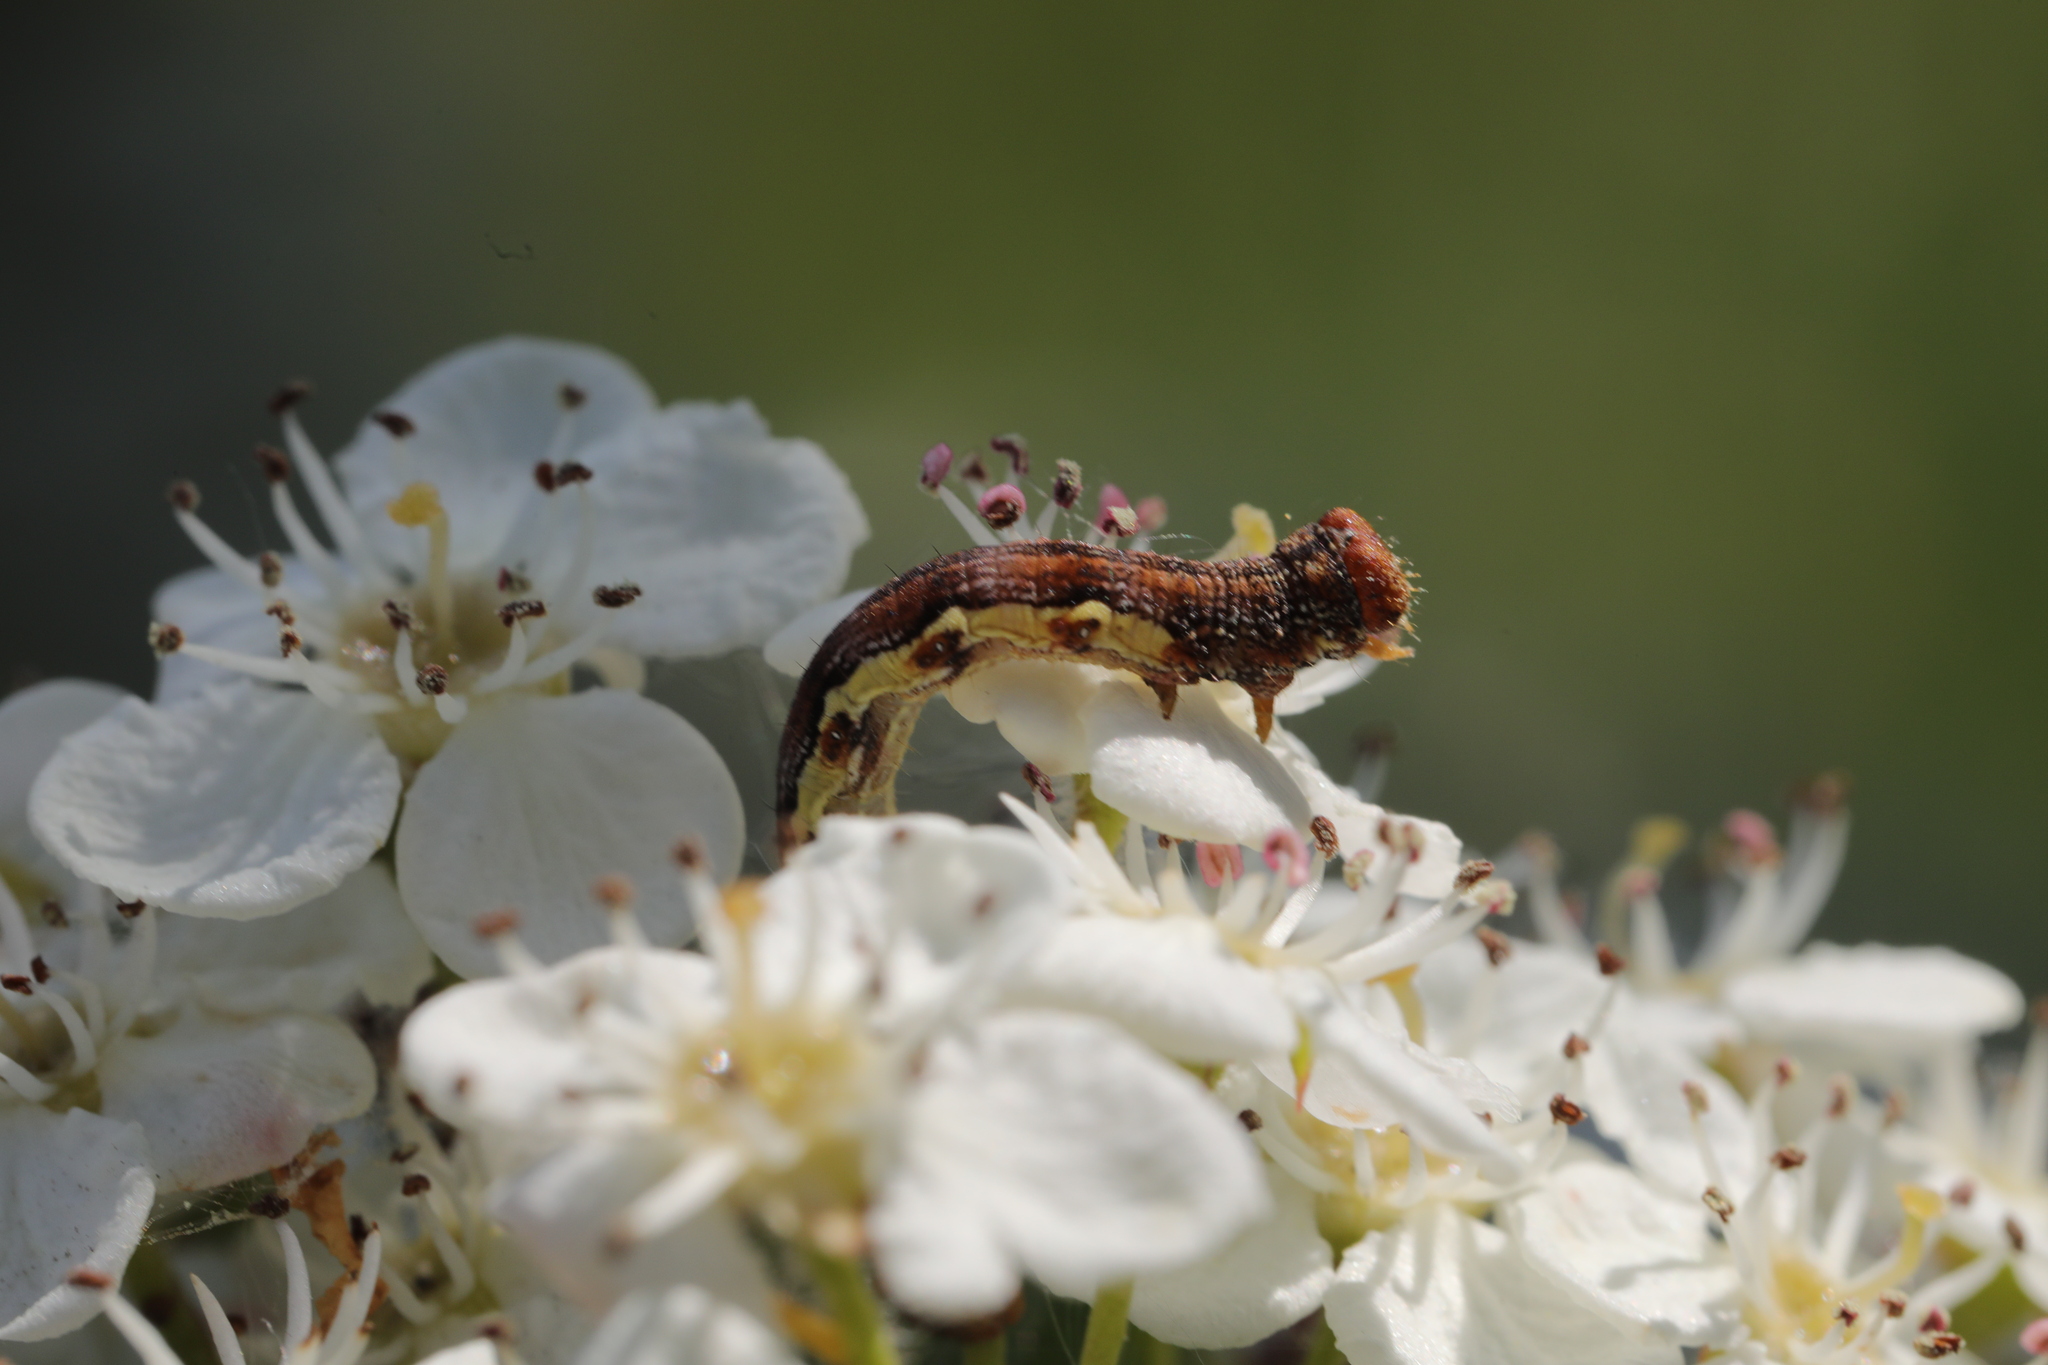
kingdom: Animalia
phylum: Arthropoda
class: Insecta
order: Lepidoptera
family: Geometridae
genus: Erannis
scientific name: Erannis defoliaria
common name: Mottled umber
